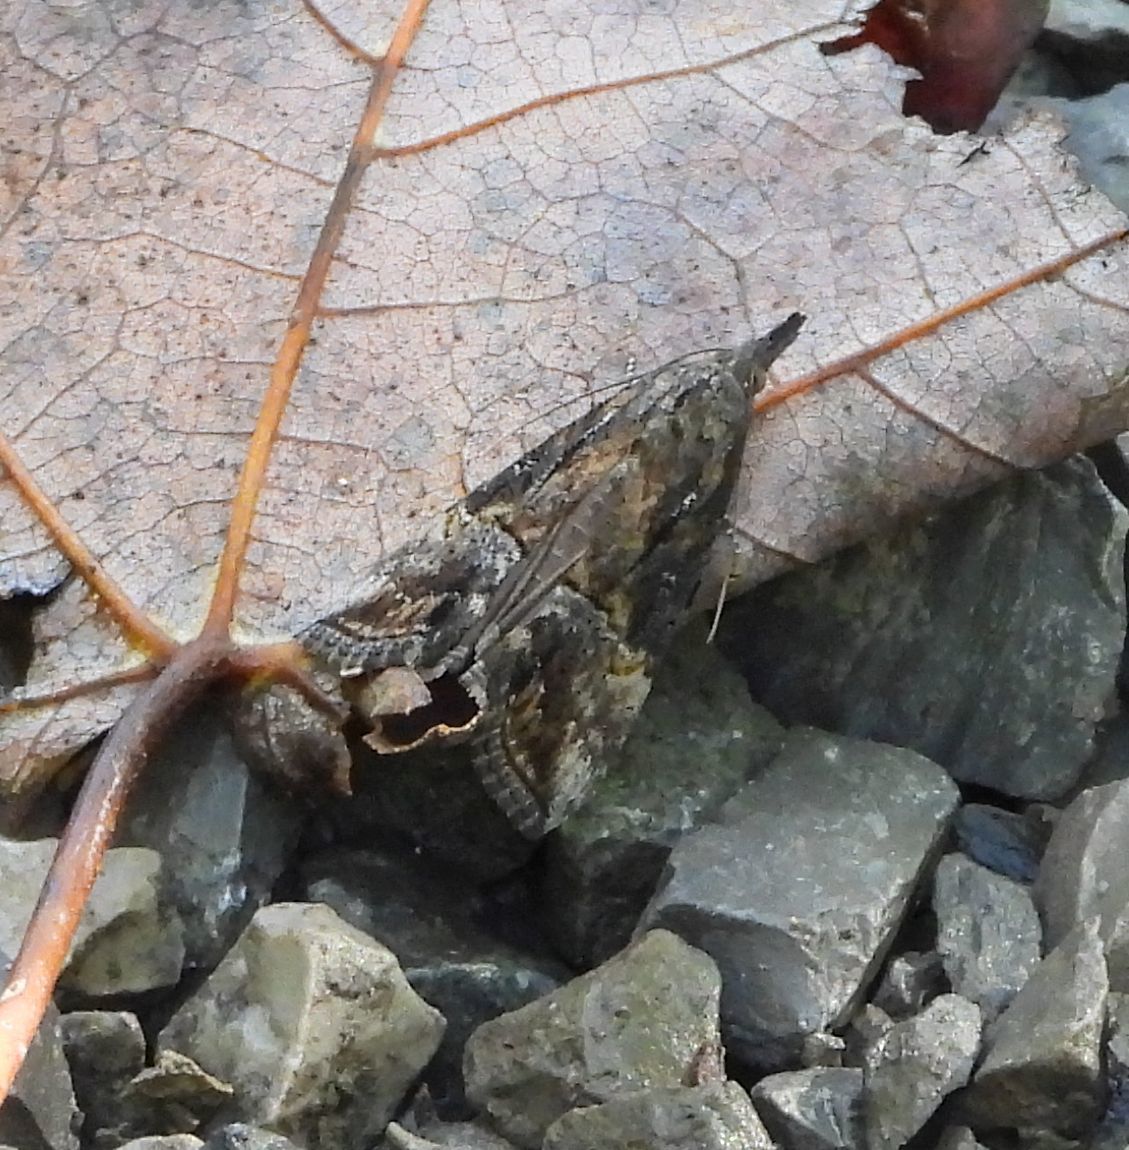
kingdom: Animalia
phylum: Arthropoda
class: Insecta
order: Lepidoptera
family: Erebidae
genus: Hypena
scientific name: Hypena scabra
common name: Green cloverworm
